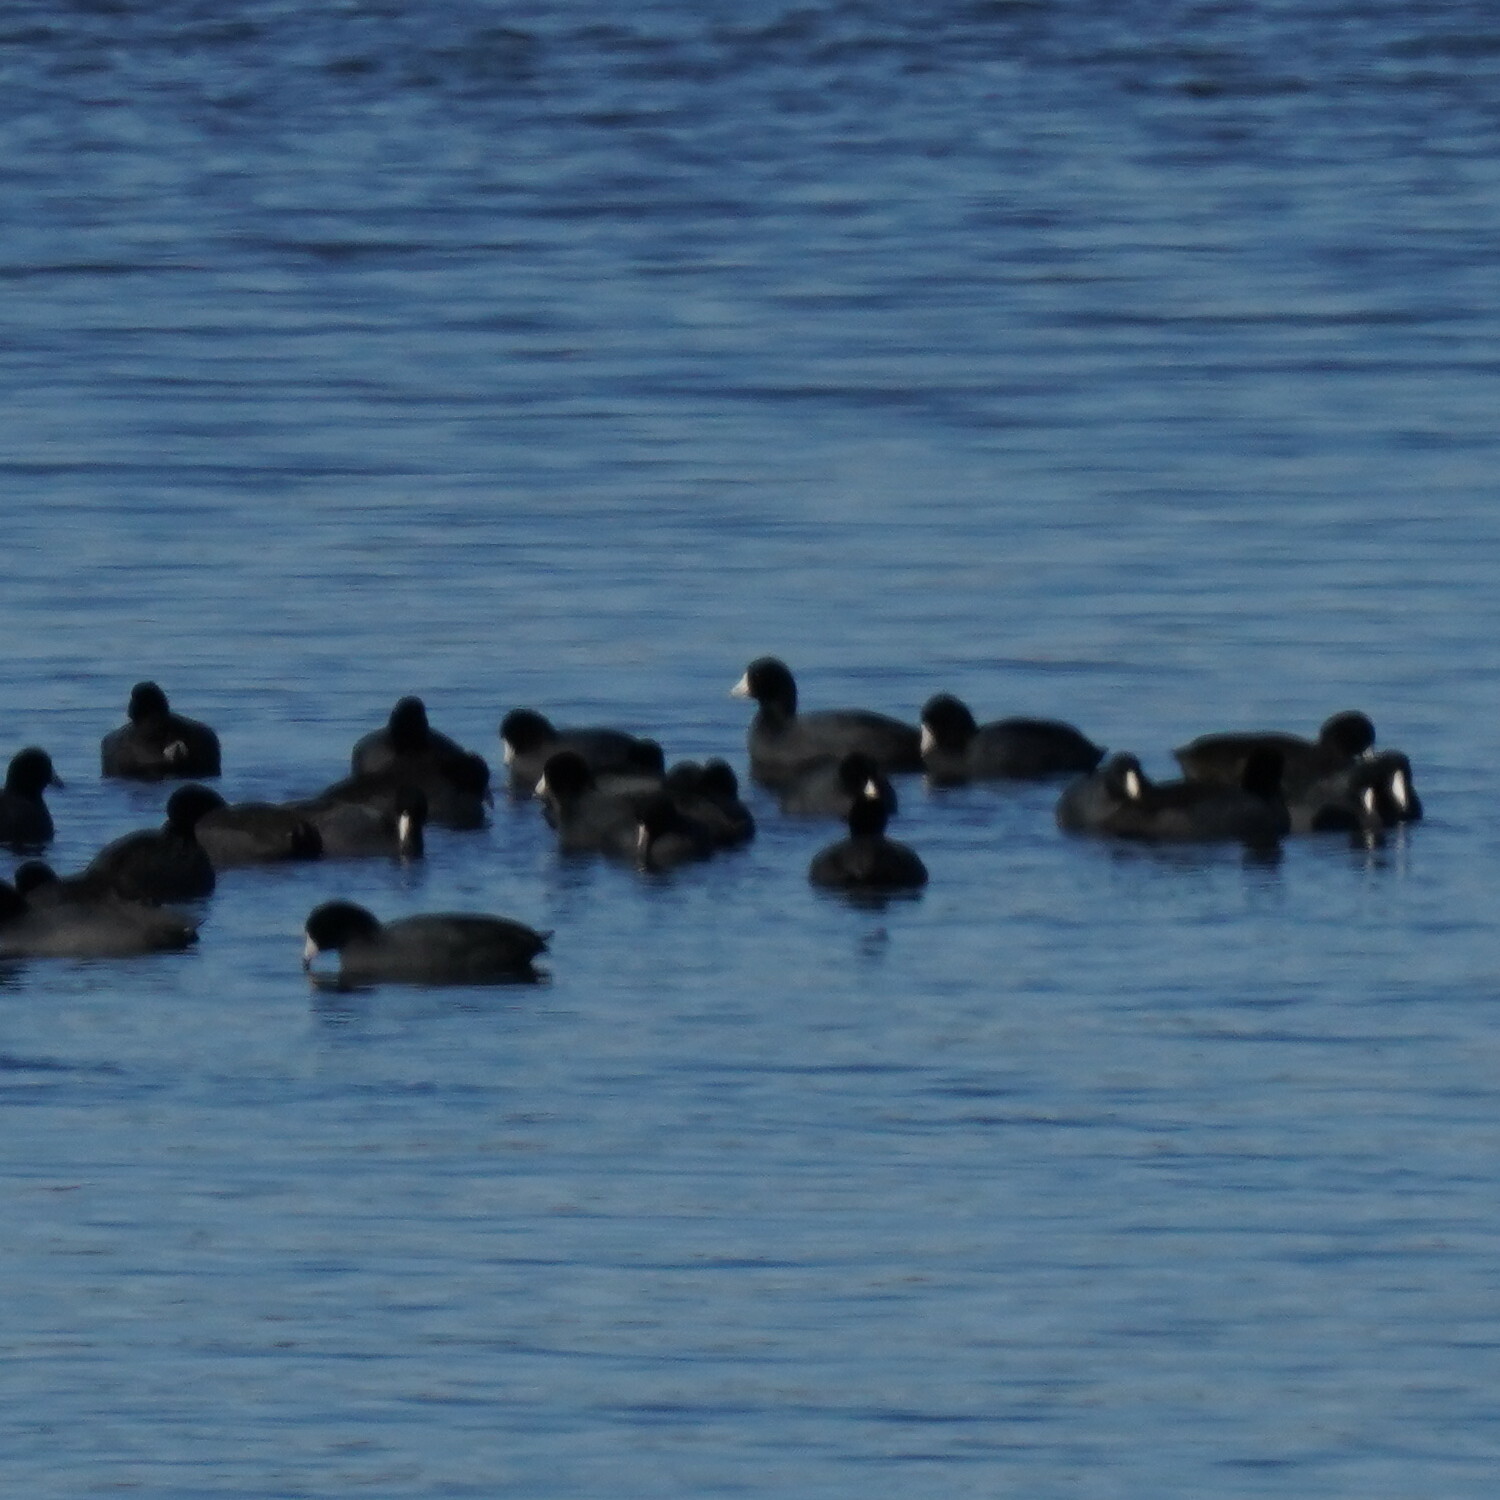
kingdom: Animalia
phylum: Chordata
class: Aves
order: Gruiformes
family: Rallidae
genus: Fulica
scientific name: Fulica americana
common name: American coot
